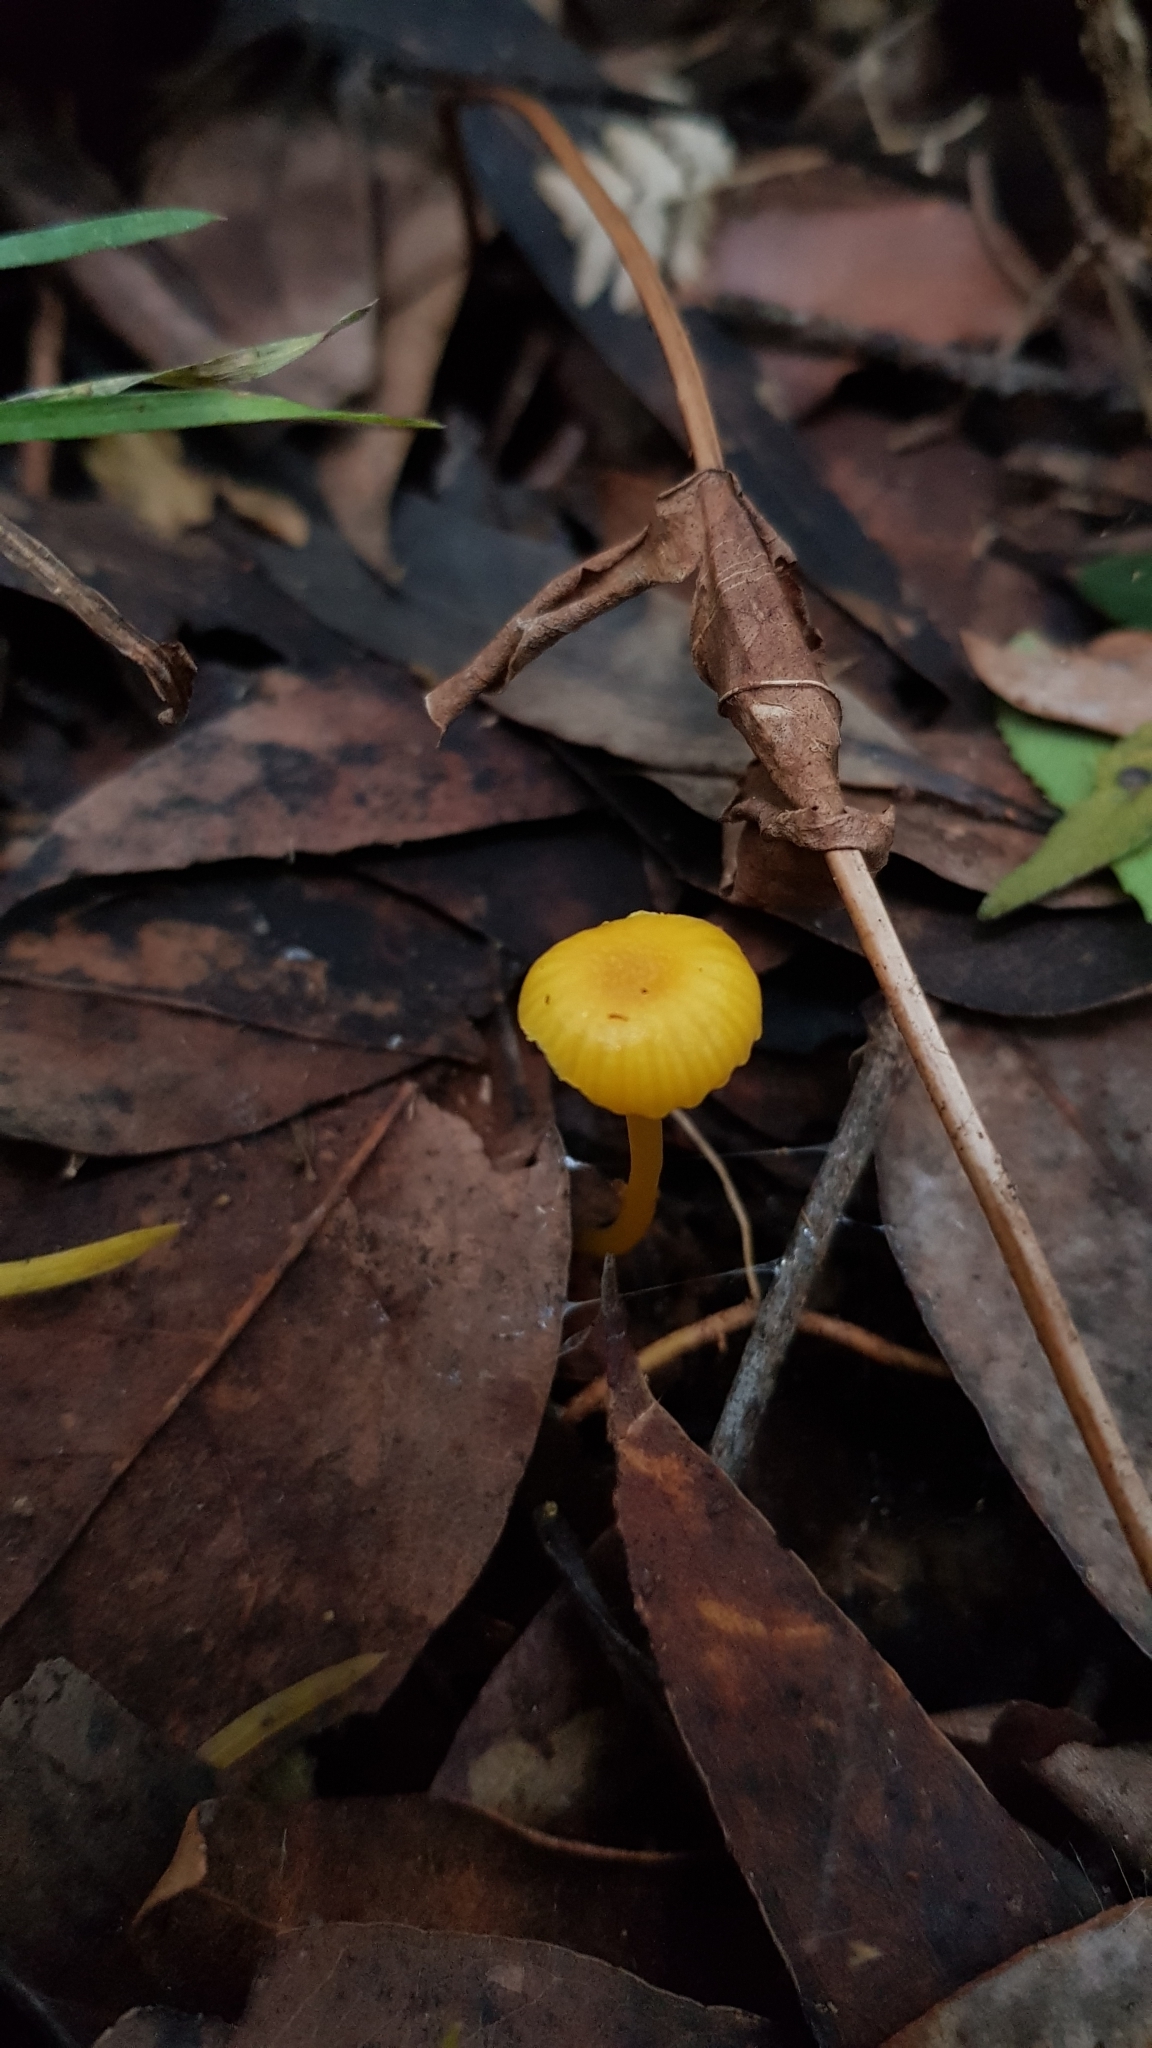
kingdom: Fungi
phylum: Basidiomycota
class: Agaricomycetes
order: Agaricales
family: Hygrophoraceae
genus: Gloioxanthomyces
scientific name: Gloioxanthomyces
